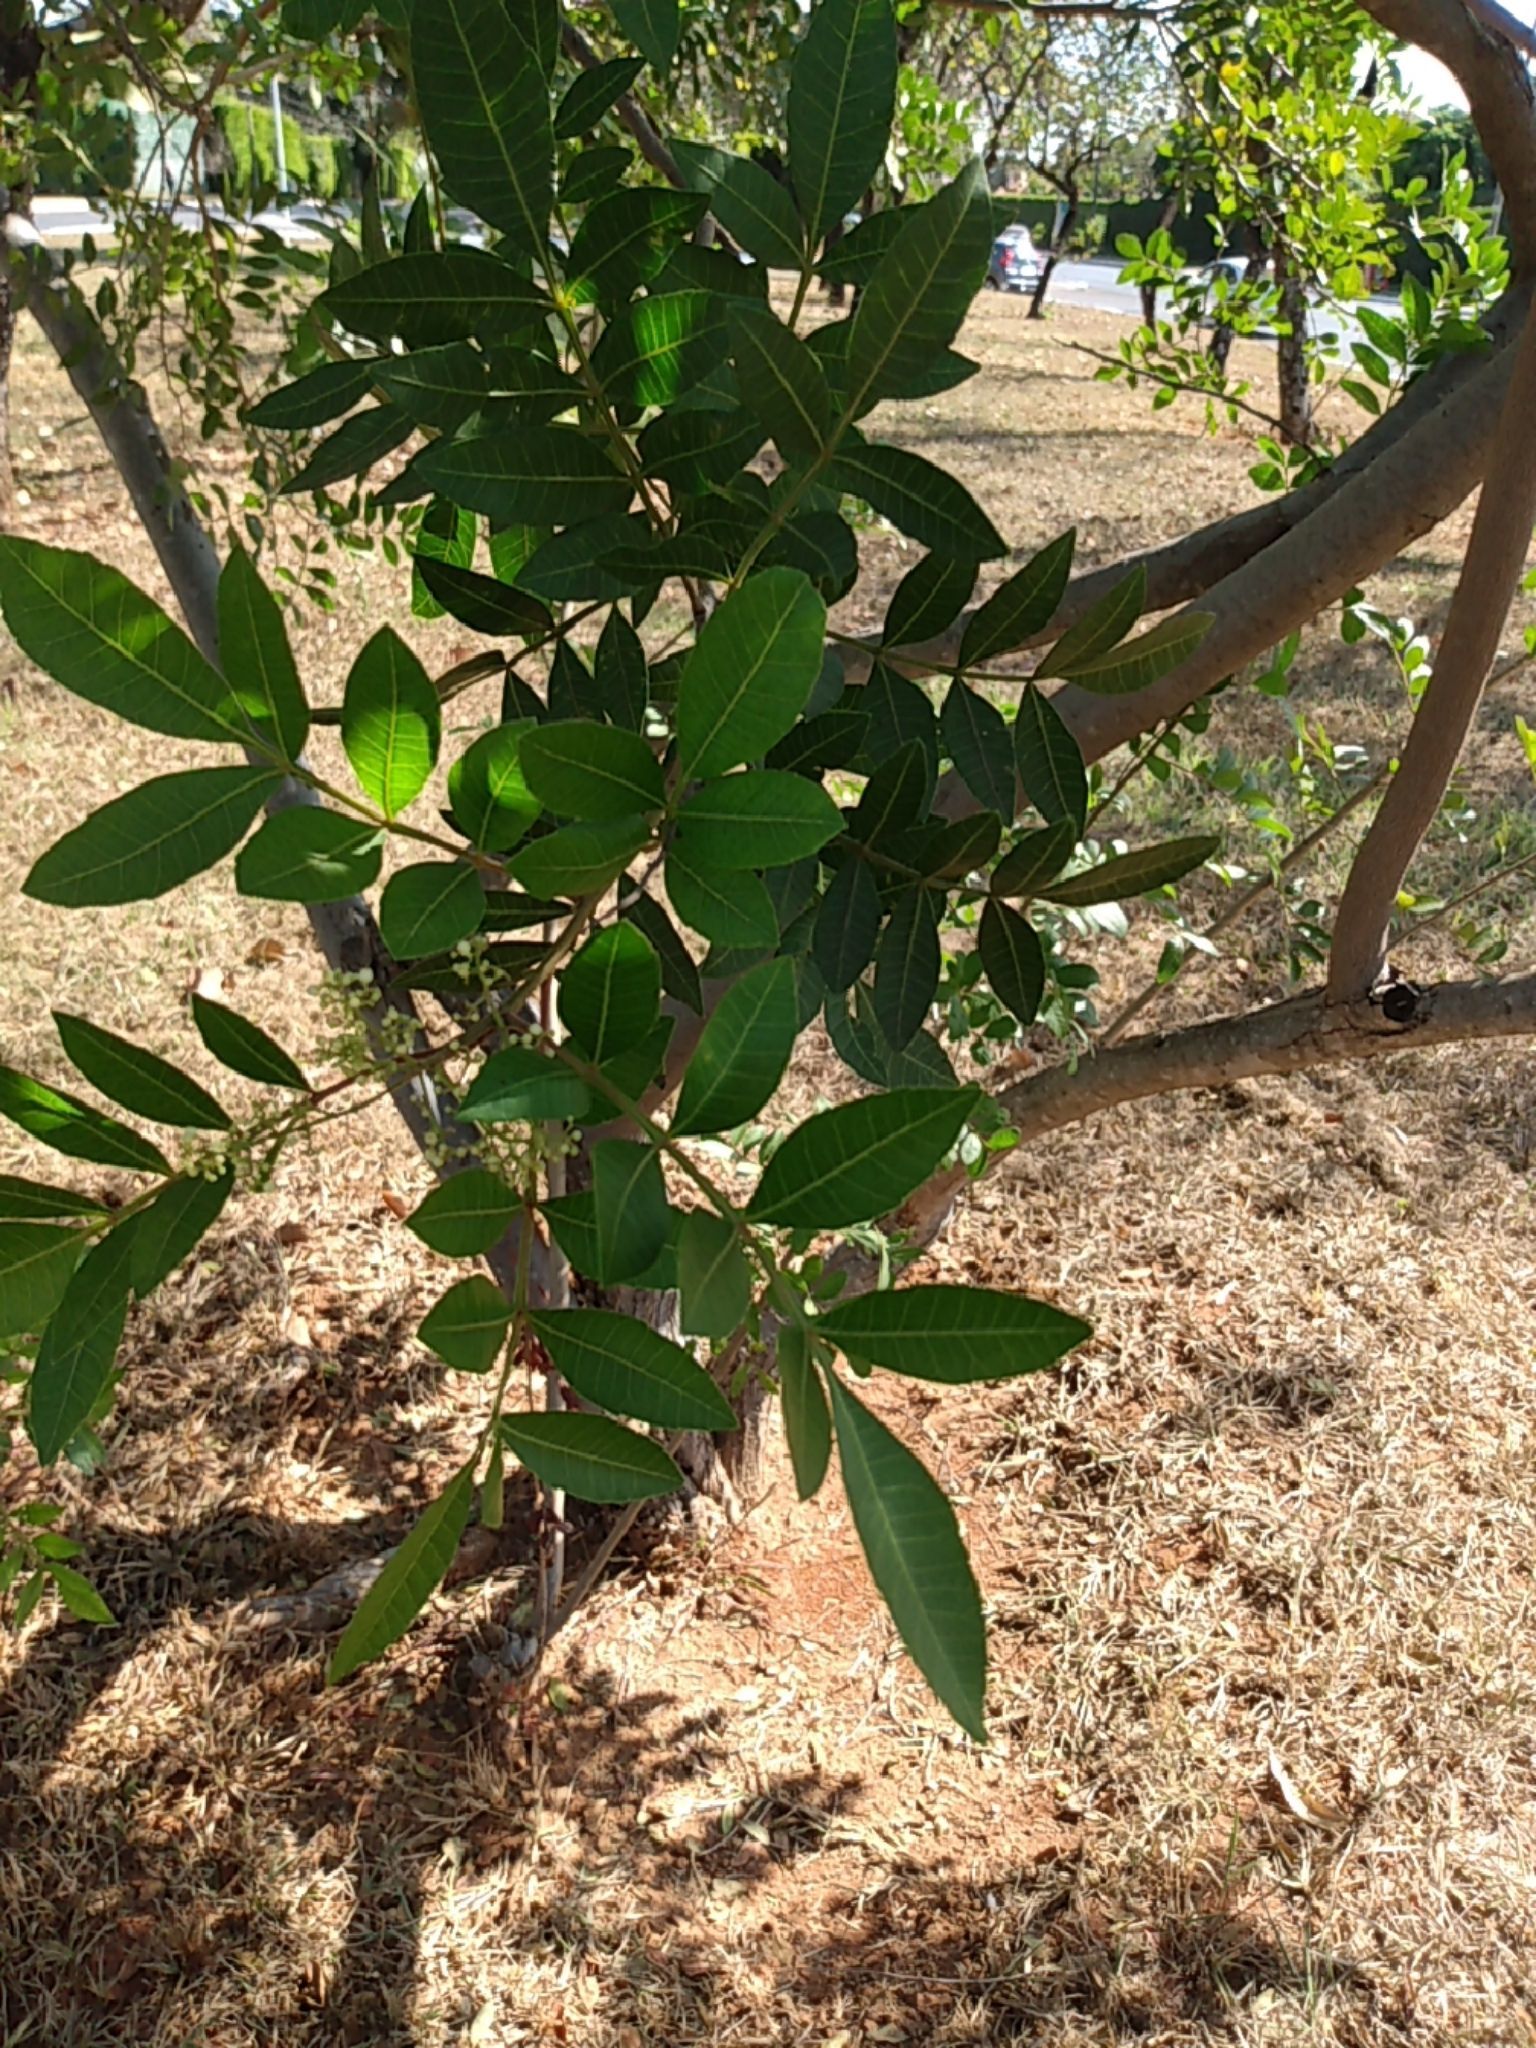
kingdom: Plantae
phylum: Tracheophyta
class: Magnoliopsida
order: Sapindales
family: Anacardiaceae
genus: Schinus
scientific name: Schinus terebinthifolia
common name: Brazilian peppertree
